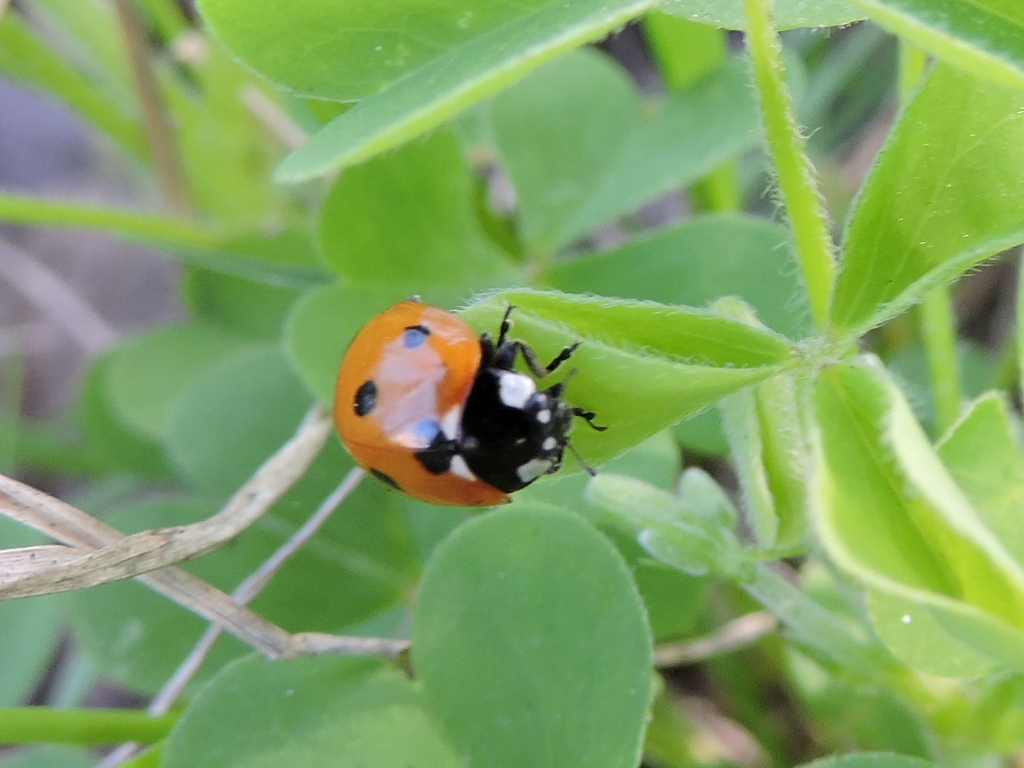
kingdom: Animalia
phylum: Arthropoda
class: Insecta
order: Coleoptera
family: Coccinellidae
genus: Coccinella
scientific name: Coccinella septempunctata
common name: Sevenspotted lady beetle
